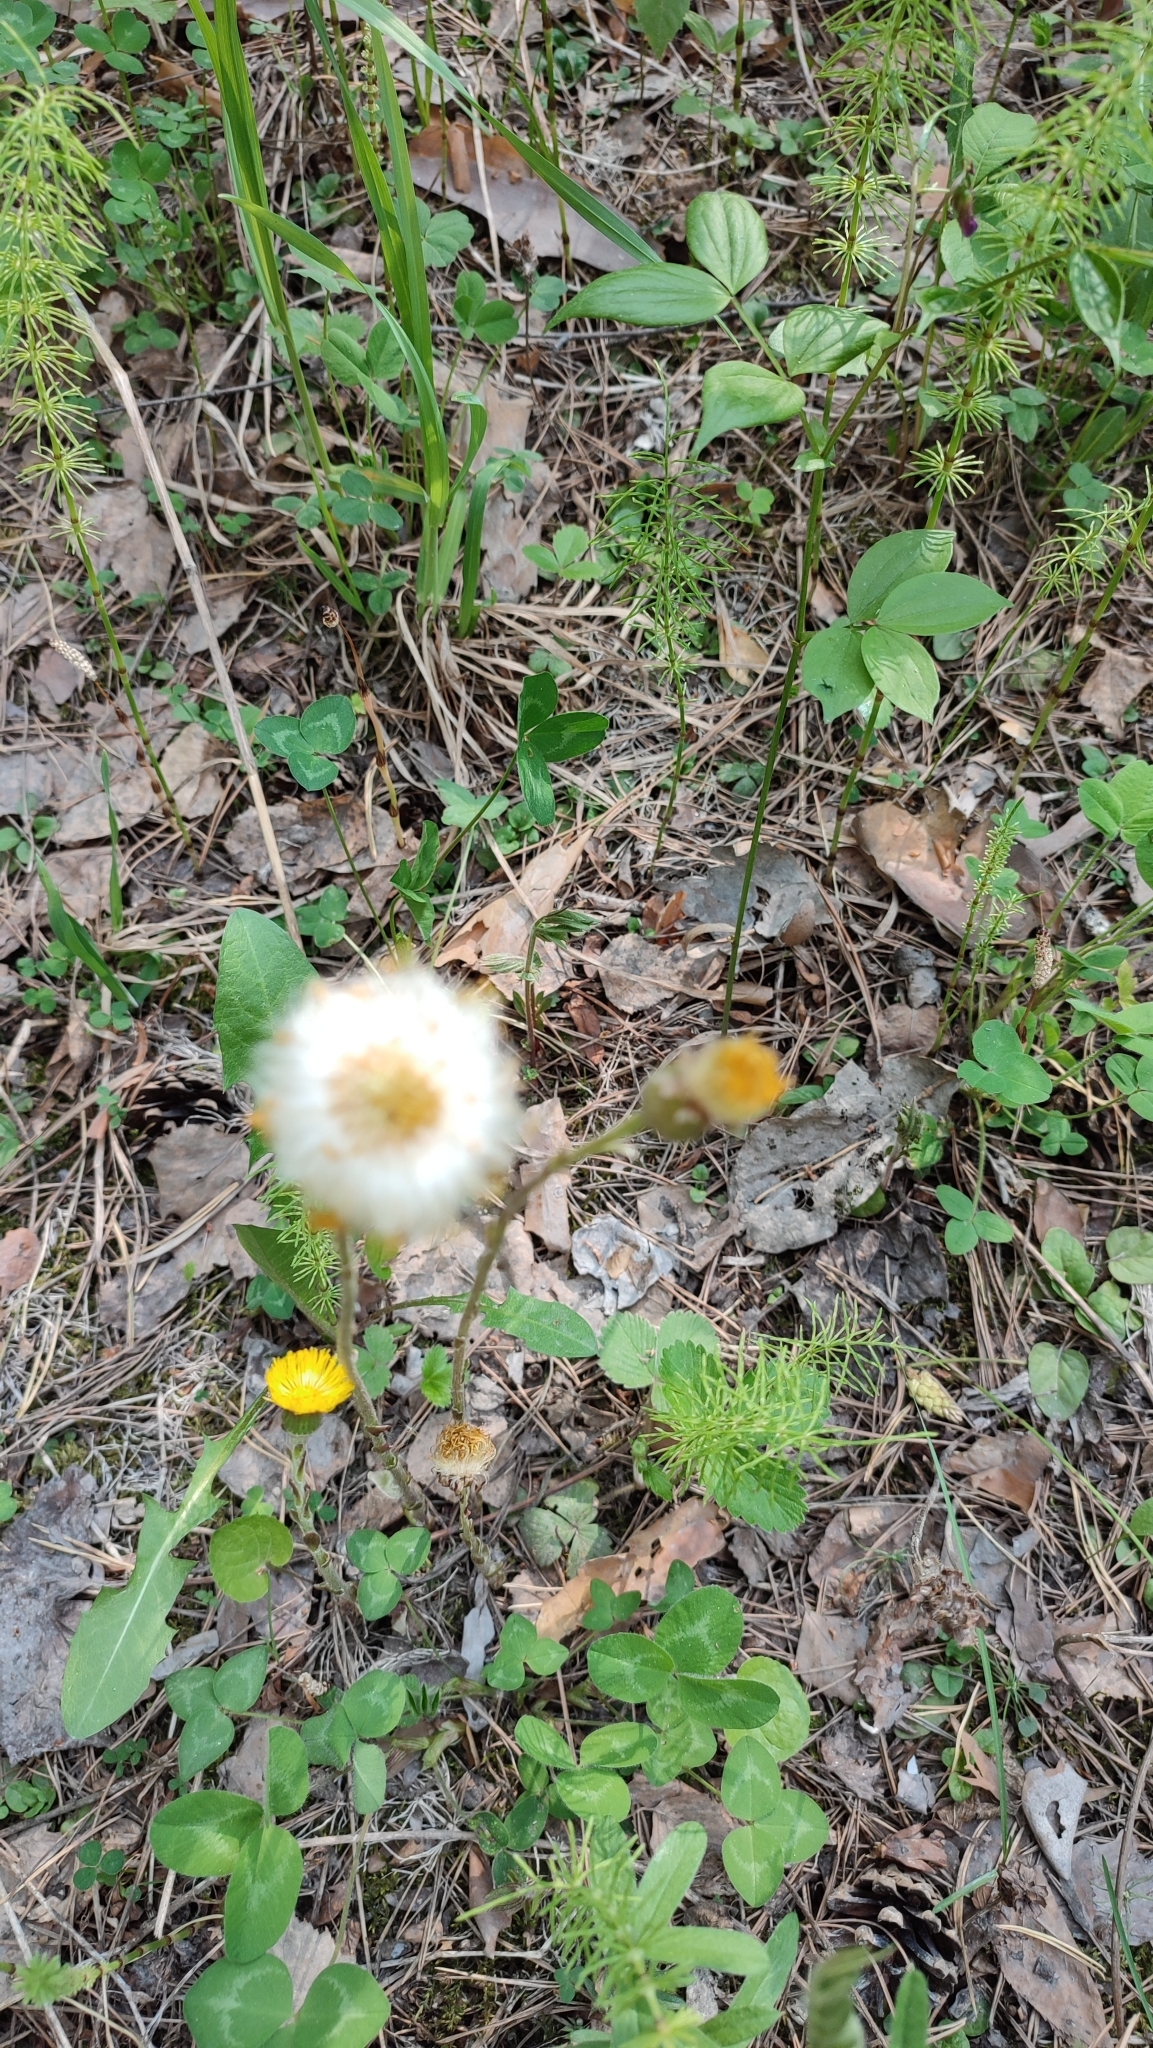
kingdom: Plantae
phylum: Tracheophyta
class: Magnoliopsida
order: Asterales
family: Asteraceae
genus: Tussilago
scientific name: Tussilago farfara
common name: Coltsfoot
